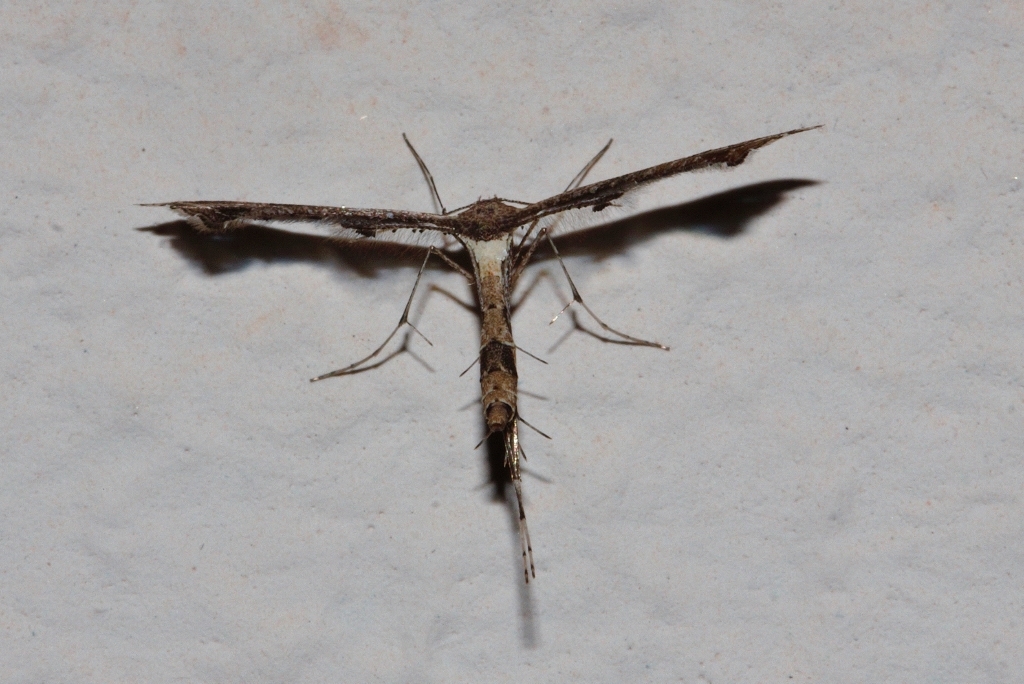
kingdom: Animalia
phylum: Arthropoda
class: Insecta
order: Lepidoptera
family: Pterophoridae
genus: Lantanophaga
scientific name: Lantanophaga pusillidactylus
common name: Moth
